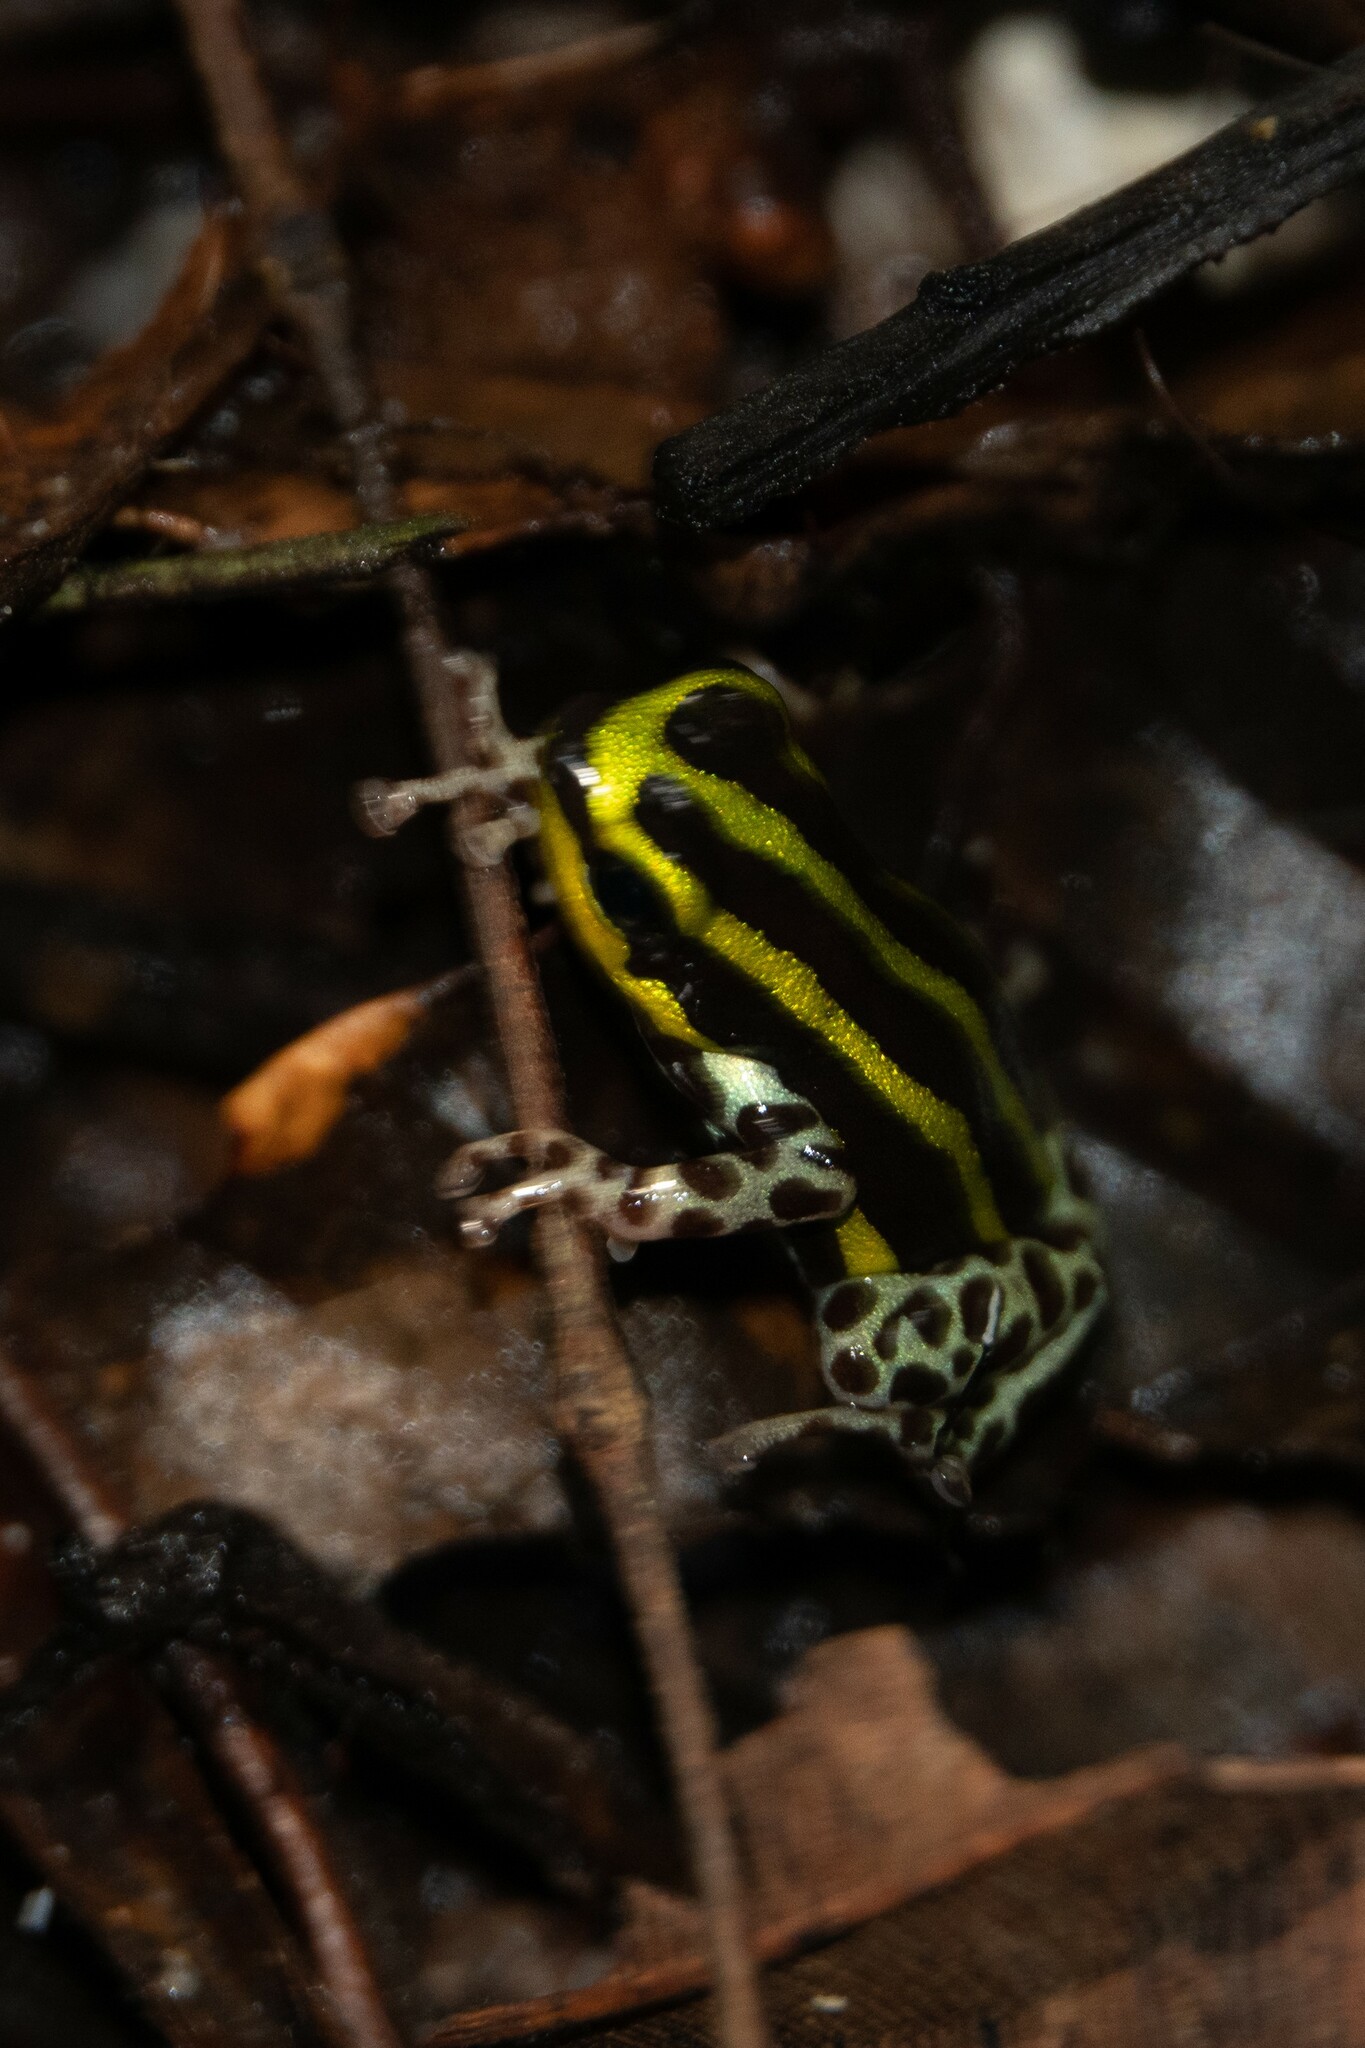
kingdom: Animalia
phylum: Chordata
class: Amphibia
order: Anura
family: Dendrobatidae
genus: Ranitomeya
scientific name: Ranitomeya sirensis
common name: Sira poison frog
